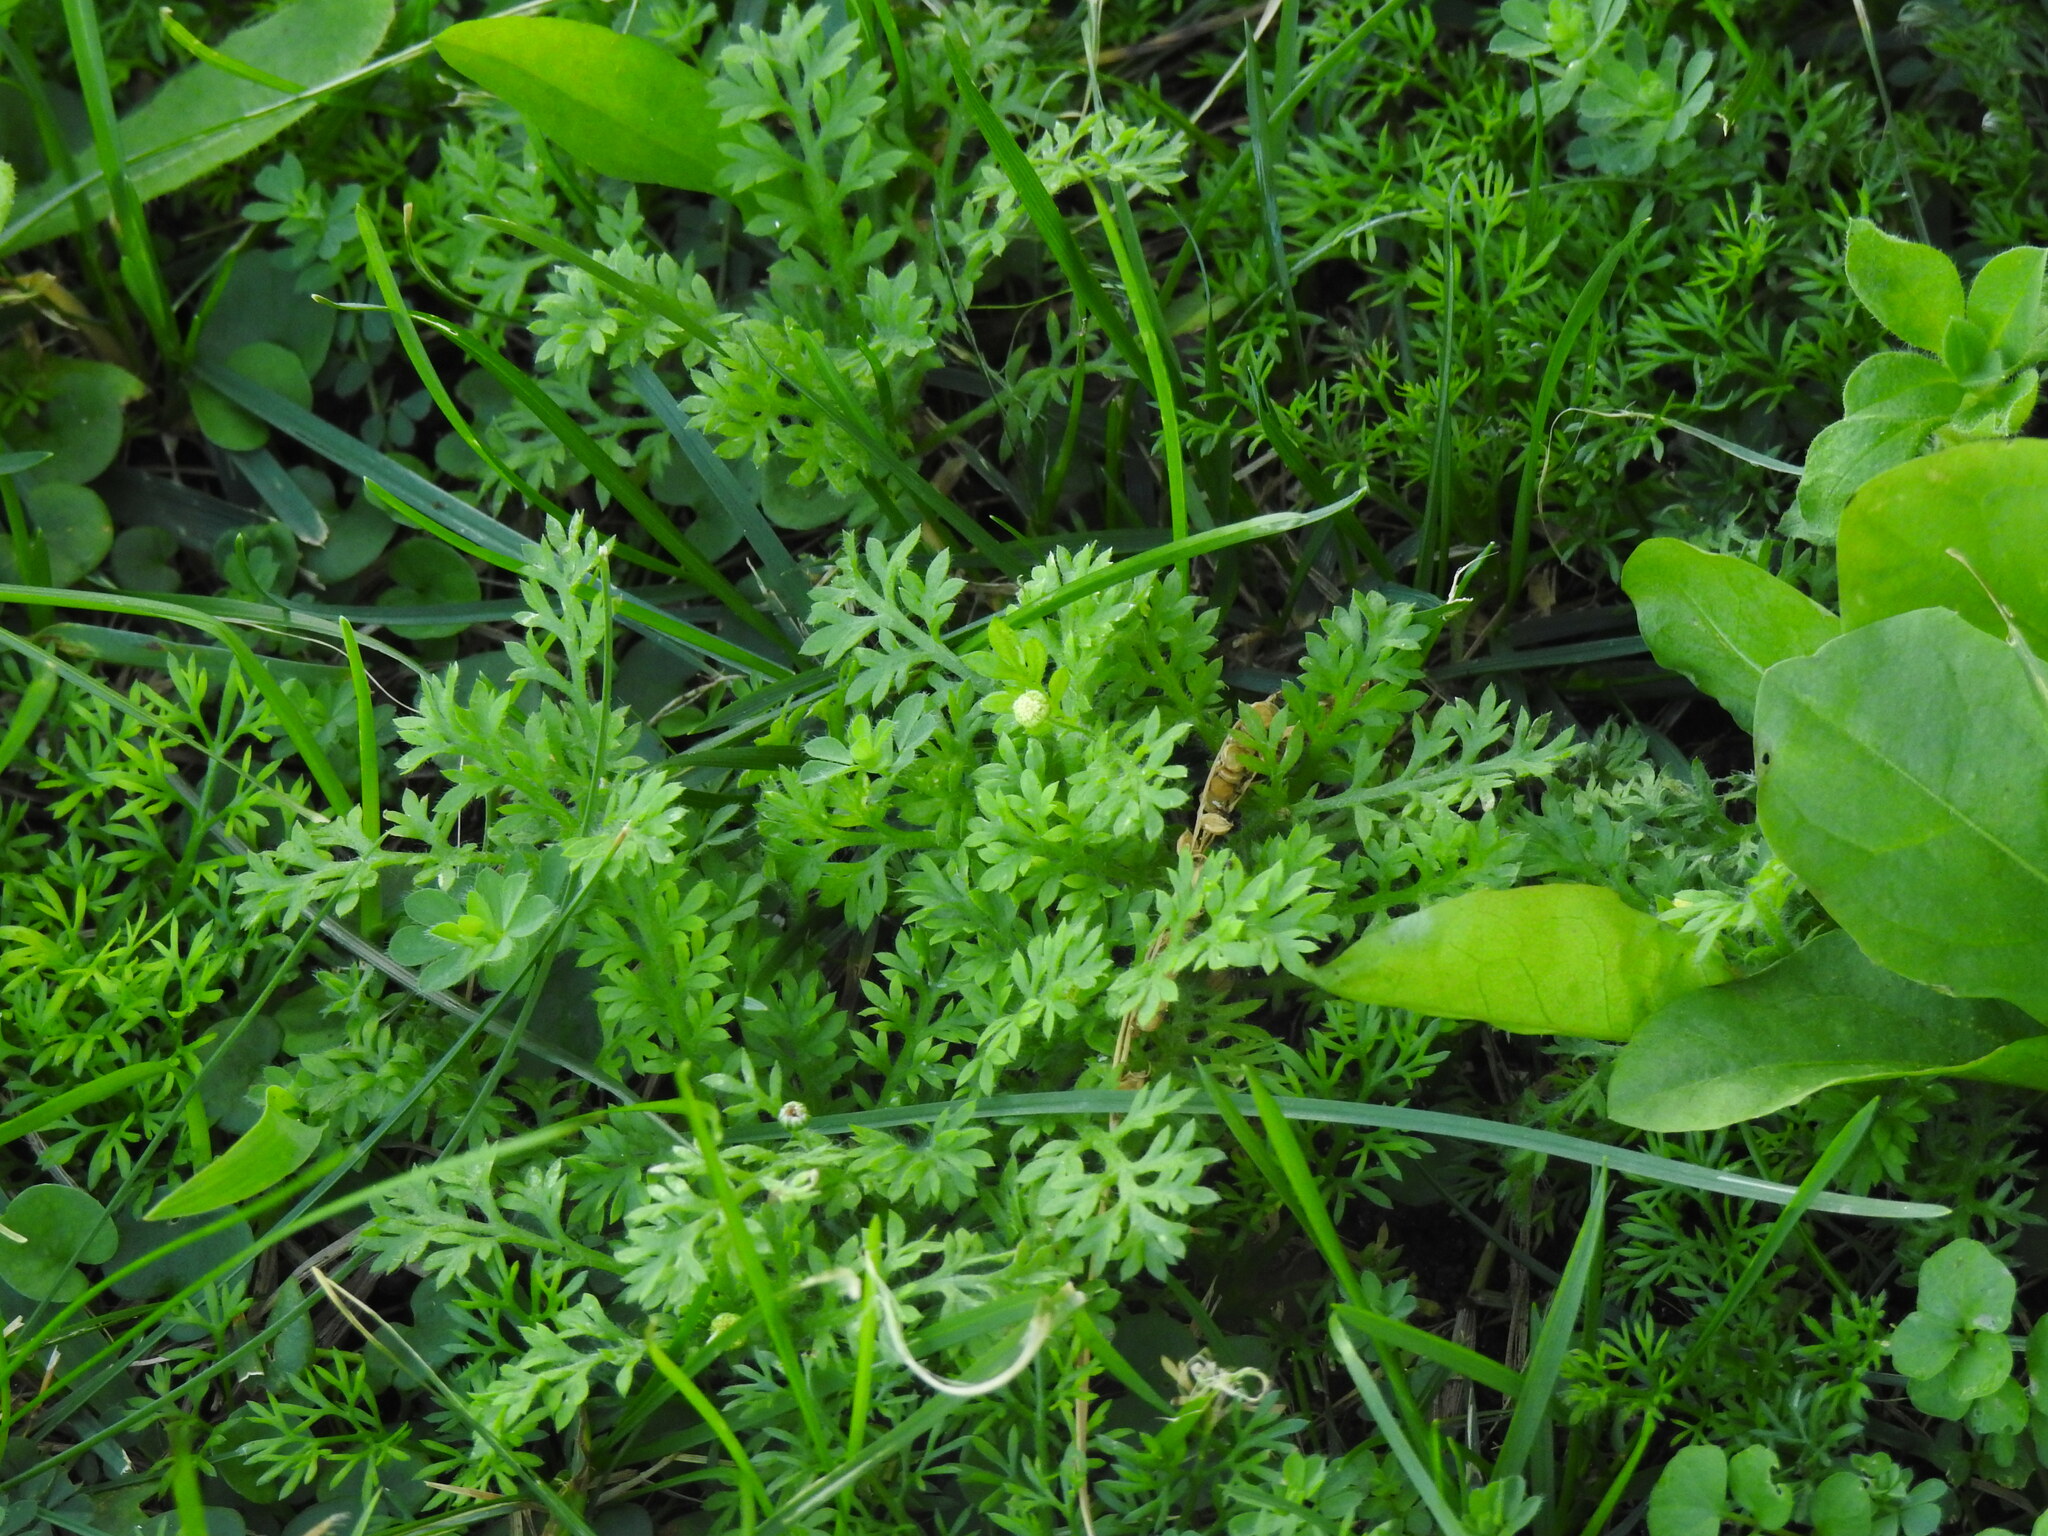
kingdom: Plantae
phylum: Tracheophyta
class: Magnoliopsida
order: Asterales
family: Asteraceae
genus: Cotula
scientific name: Cotula australis
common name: Australian waterbuttons
